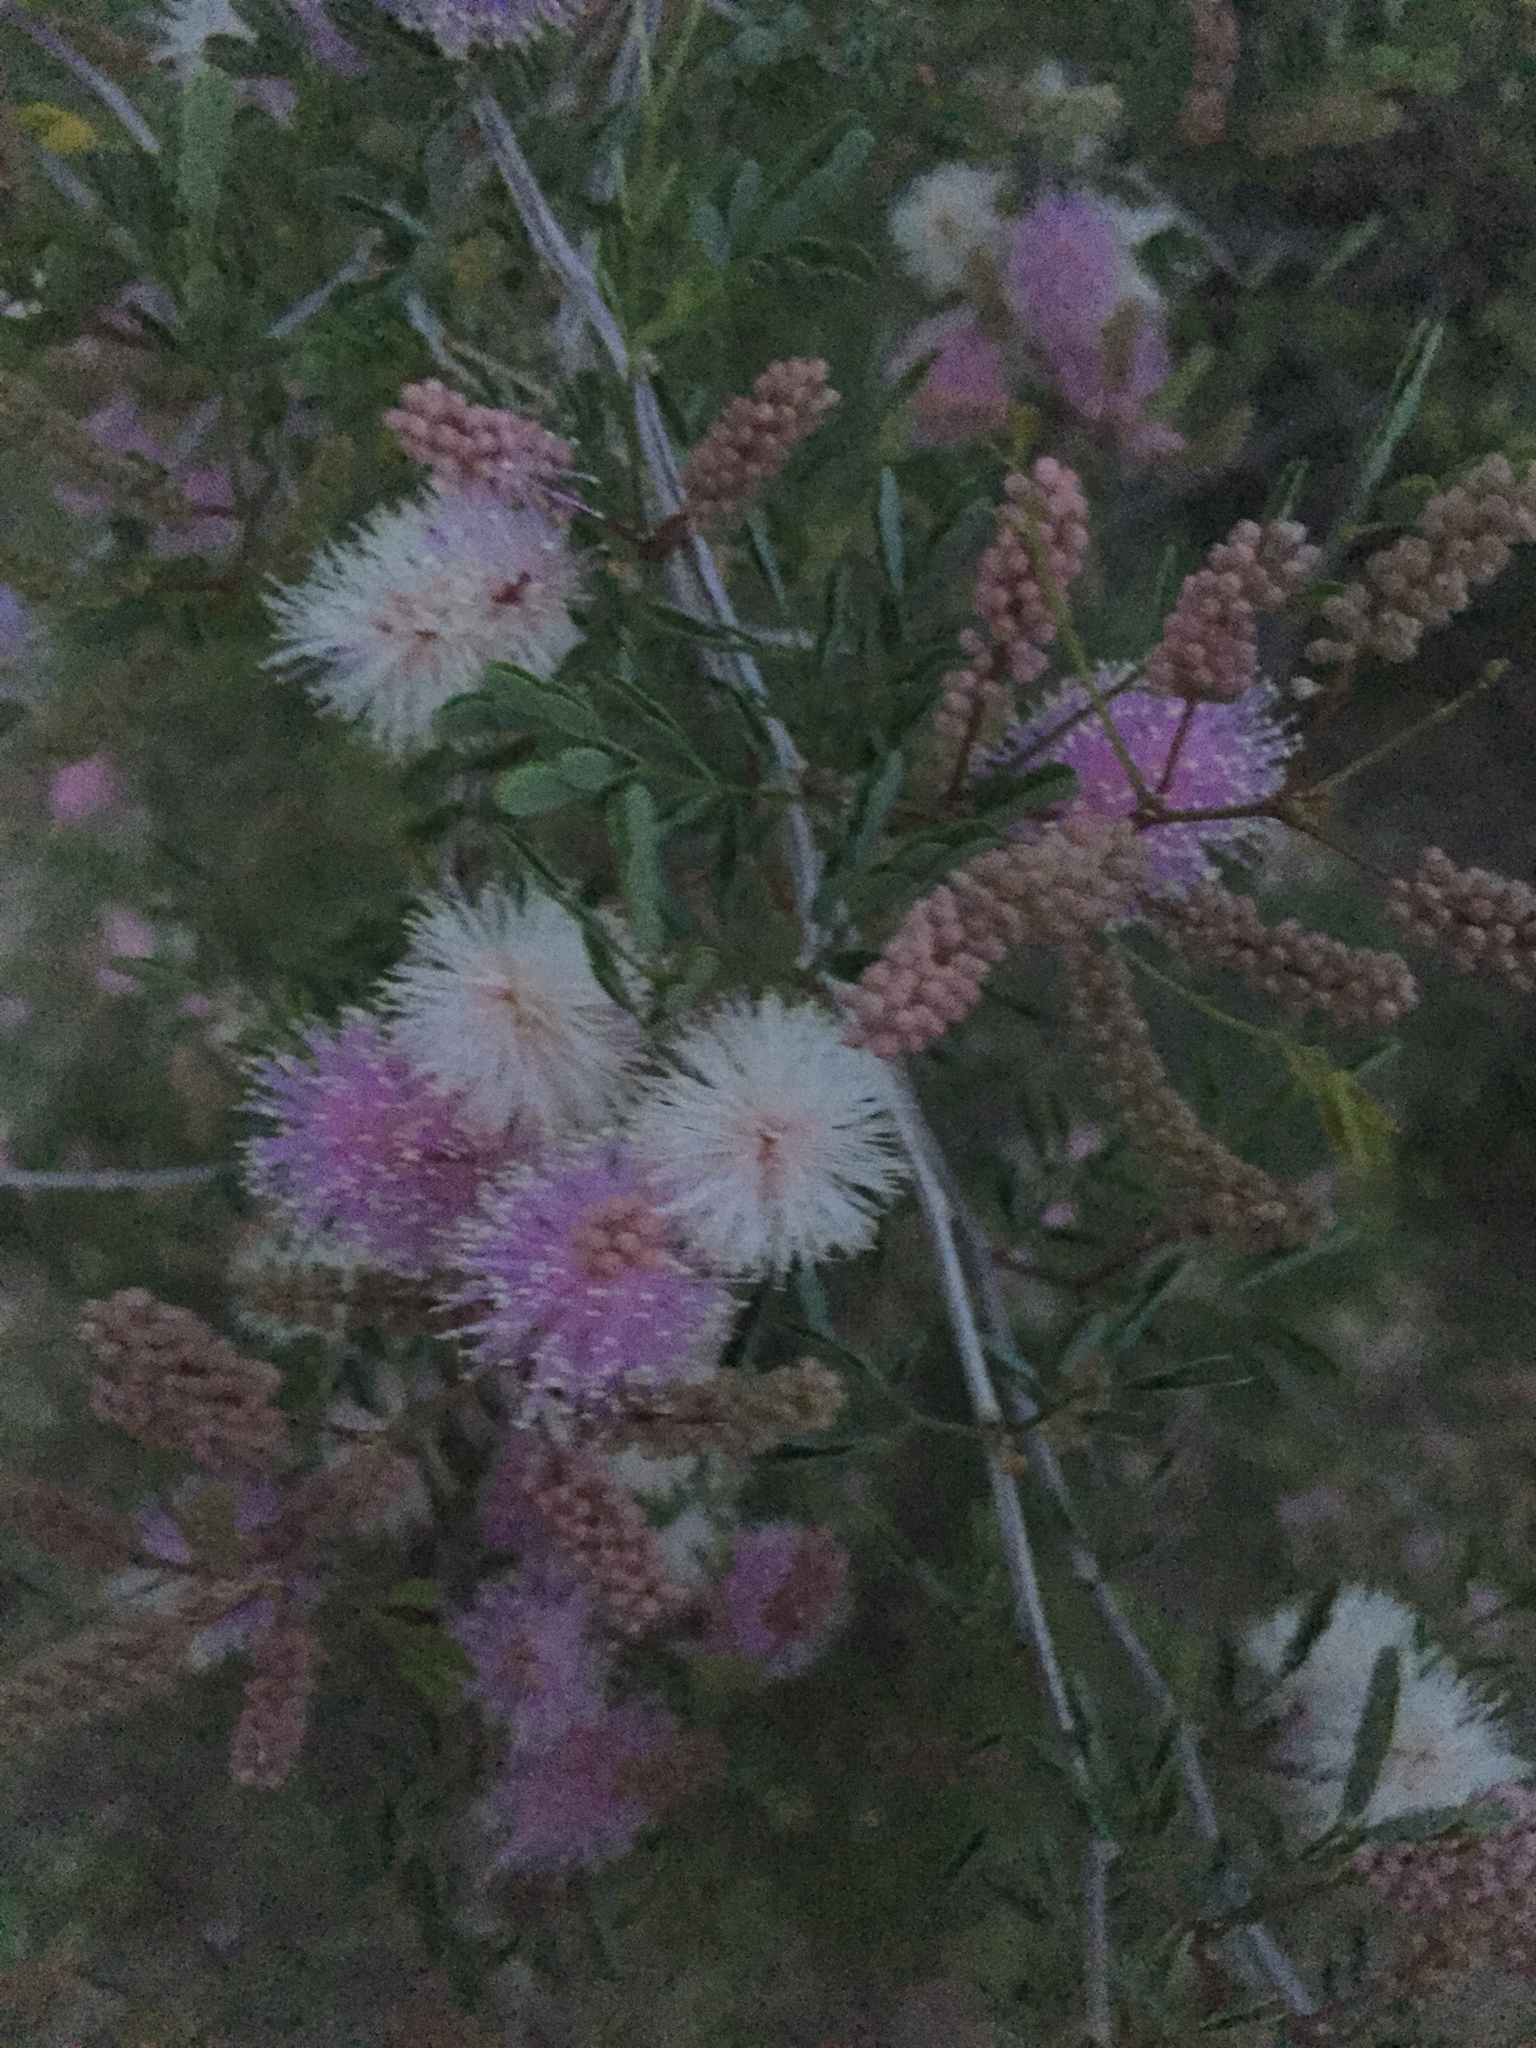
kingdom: Plantae
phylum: Tracheophyta
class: Magnoliopsida
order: Fabales
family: Fabaceae
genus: Mimosa
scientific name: Mimosa dysocarpa
